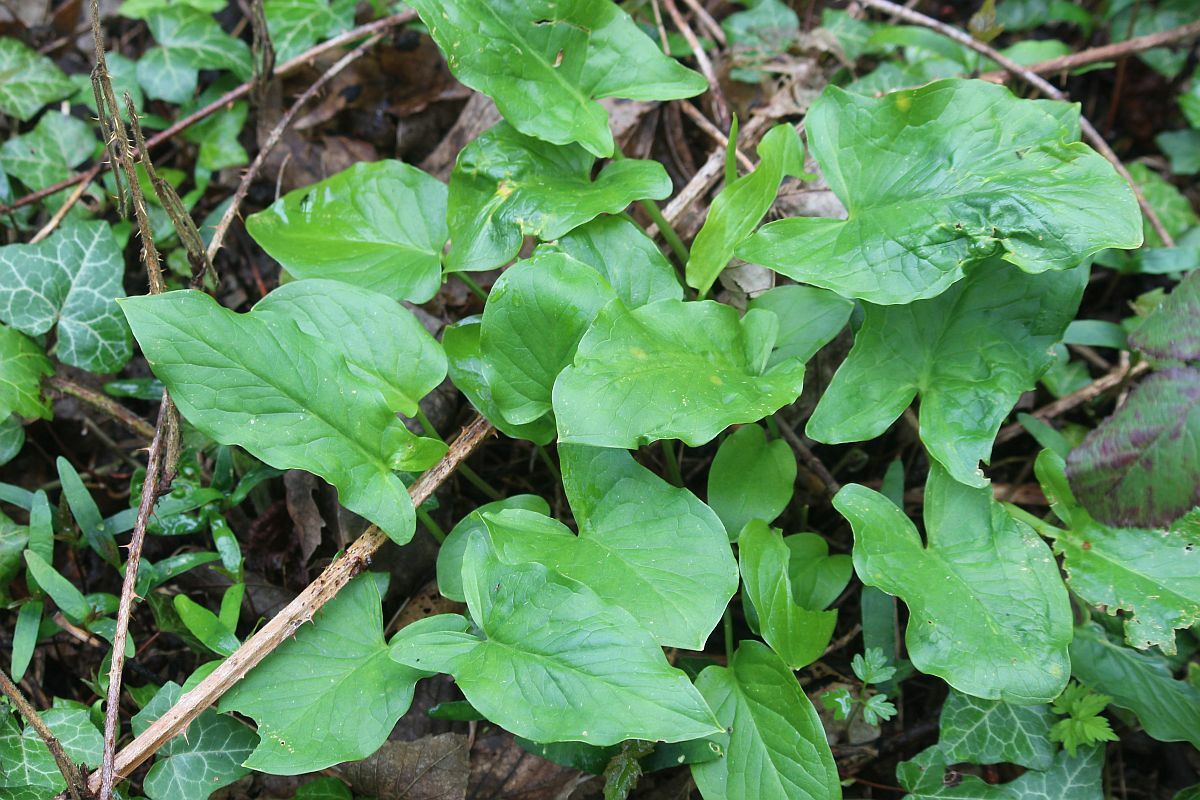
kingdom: Plantae
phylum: Tracheophyta
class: Liliopsida
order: Alismatales
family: Araceae
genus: Arum
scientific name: Arum maculatum
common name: Lords-and-ladies
